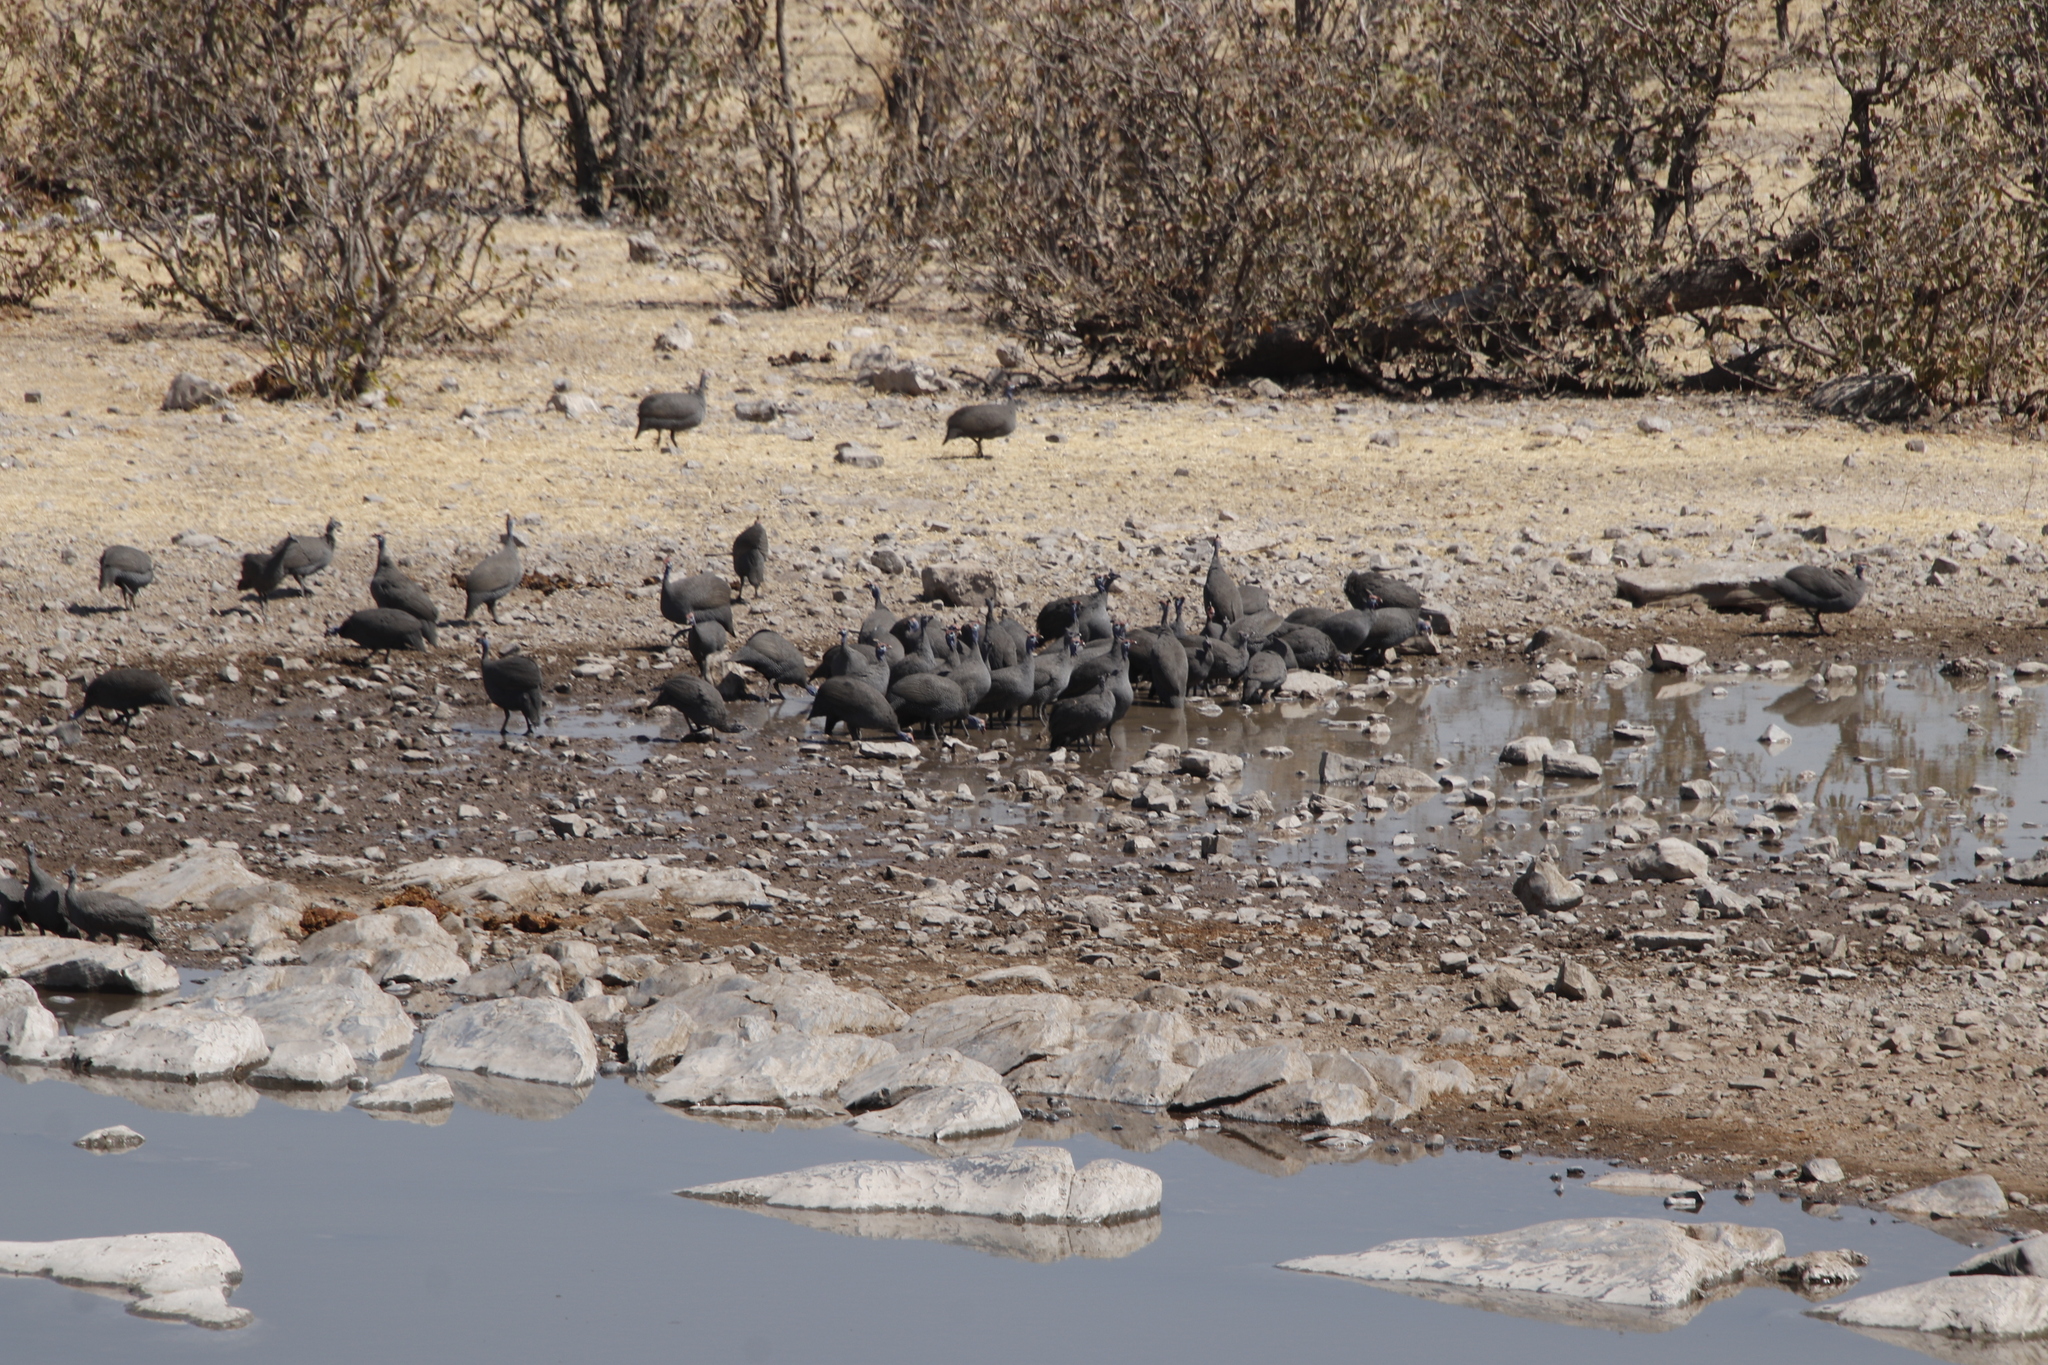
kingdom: Animalia
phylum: Chordata
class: Aves
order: Galliformes
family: Numididae
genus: Numida
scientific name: Numida meleagris
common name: Helmeted guineafowl
